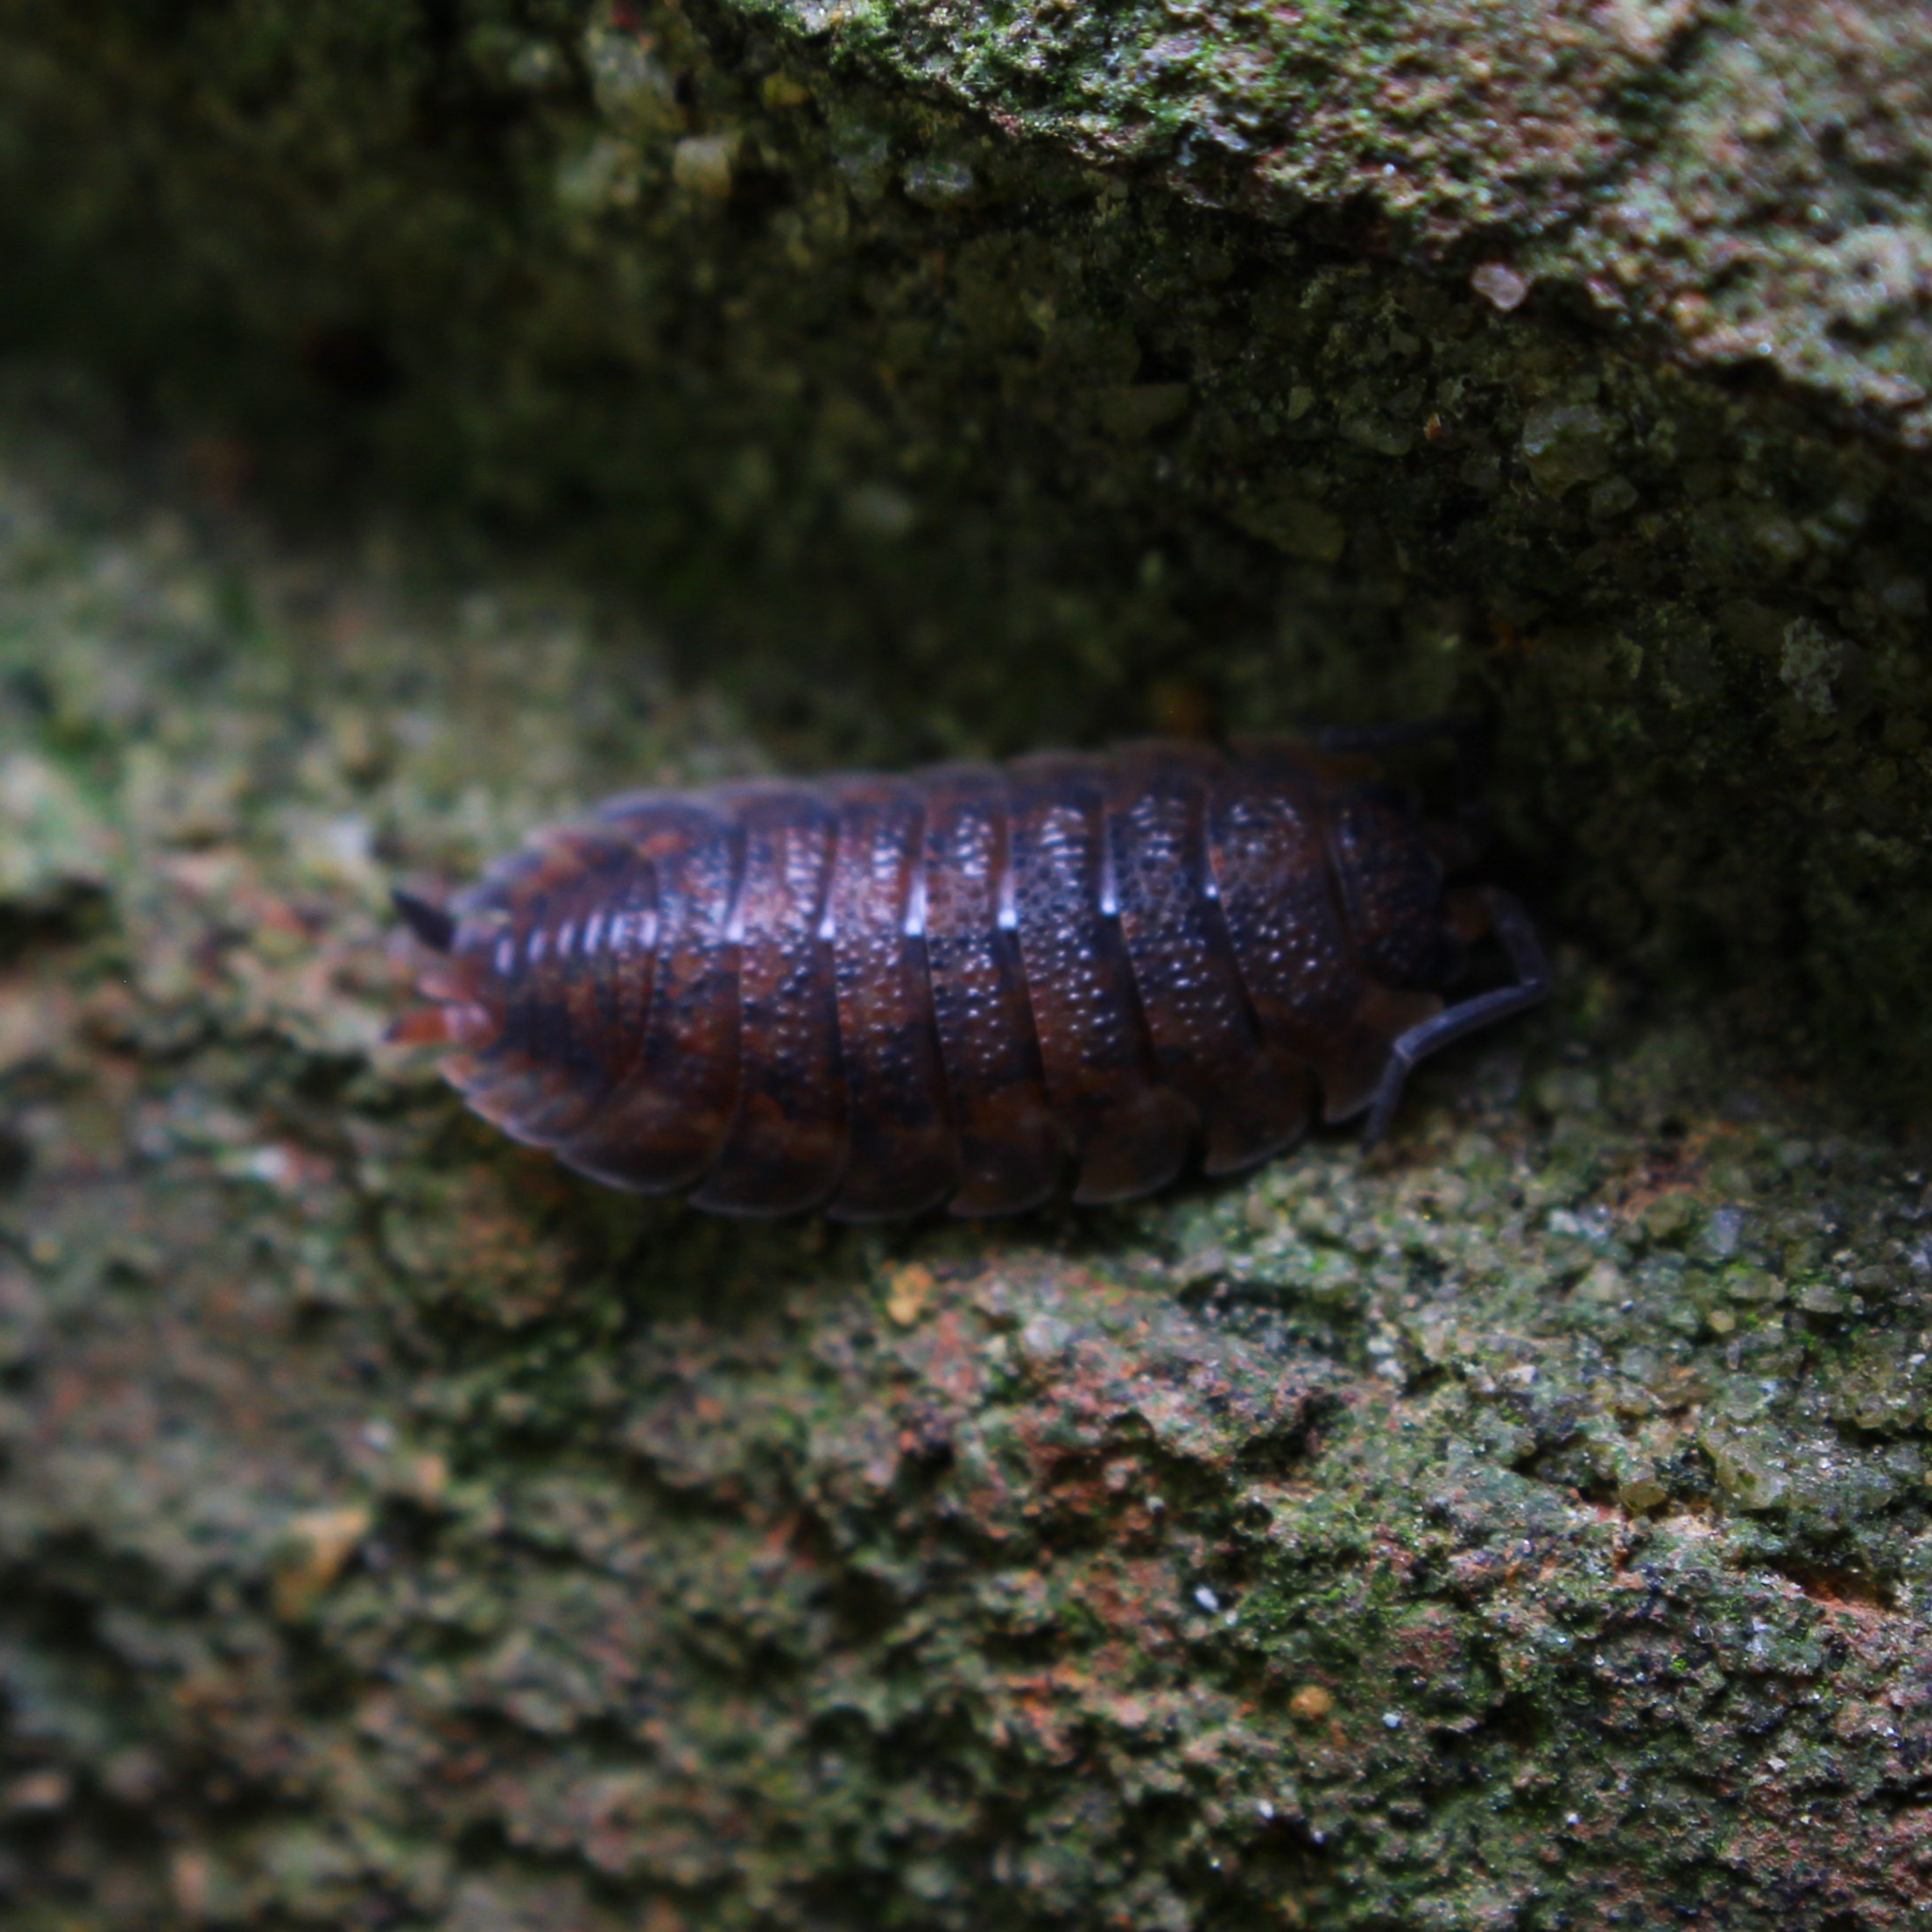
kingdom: Animalia
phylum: Arthropoda
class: Malacostraca
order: Isopoda
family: Porcellionidae
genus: Porcellio
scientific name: Porcellio scaber
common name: Common rough woodlouse
